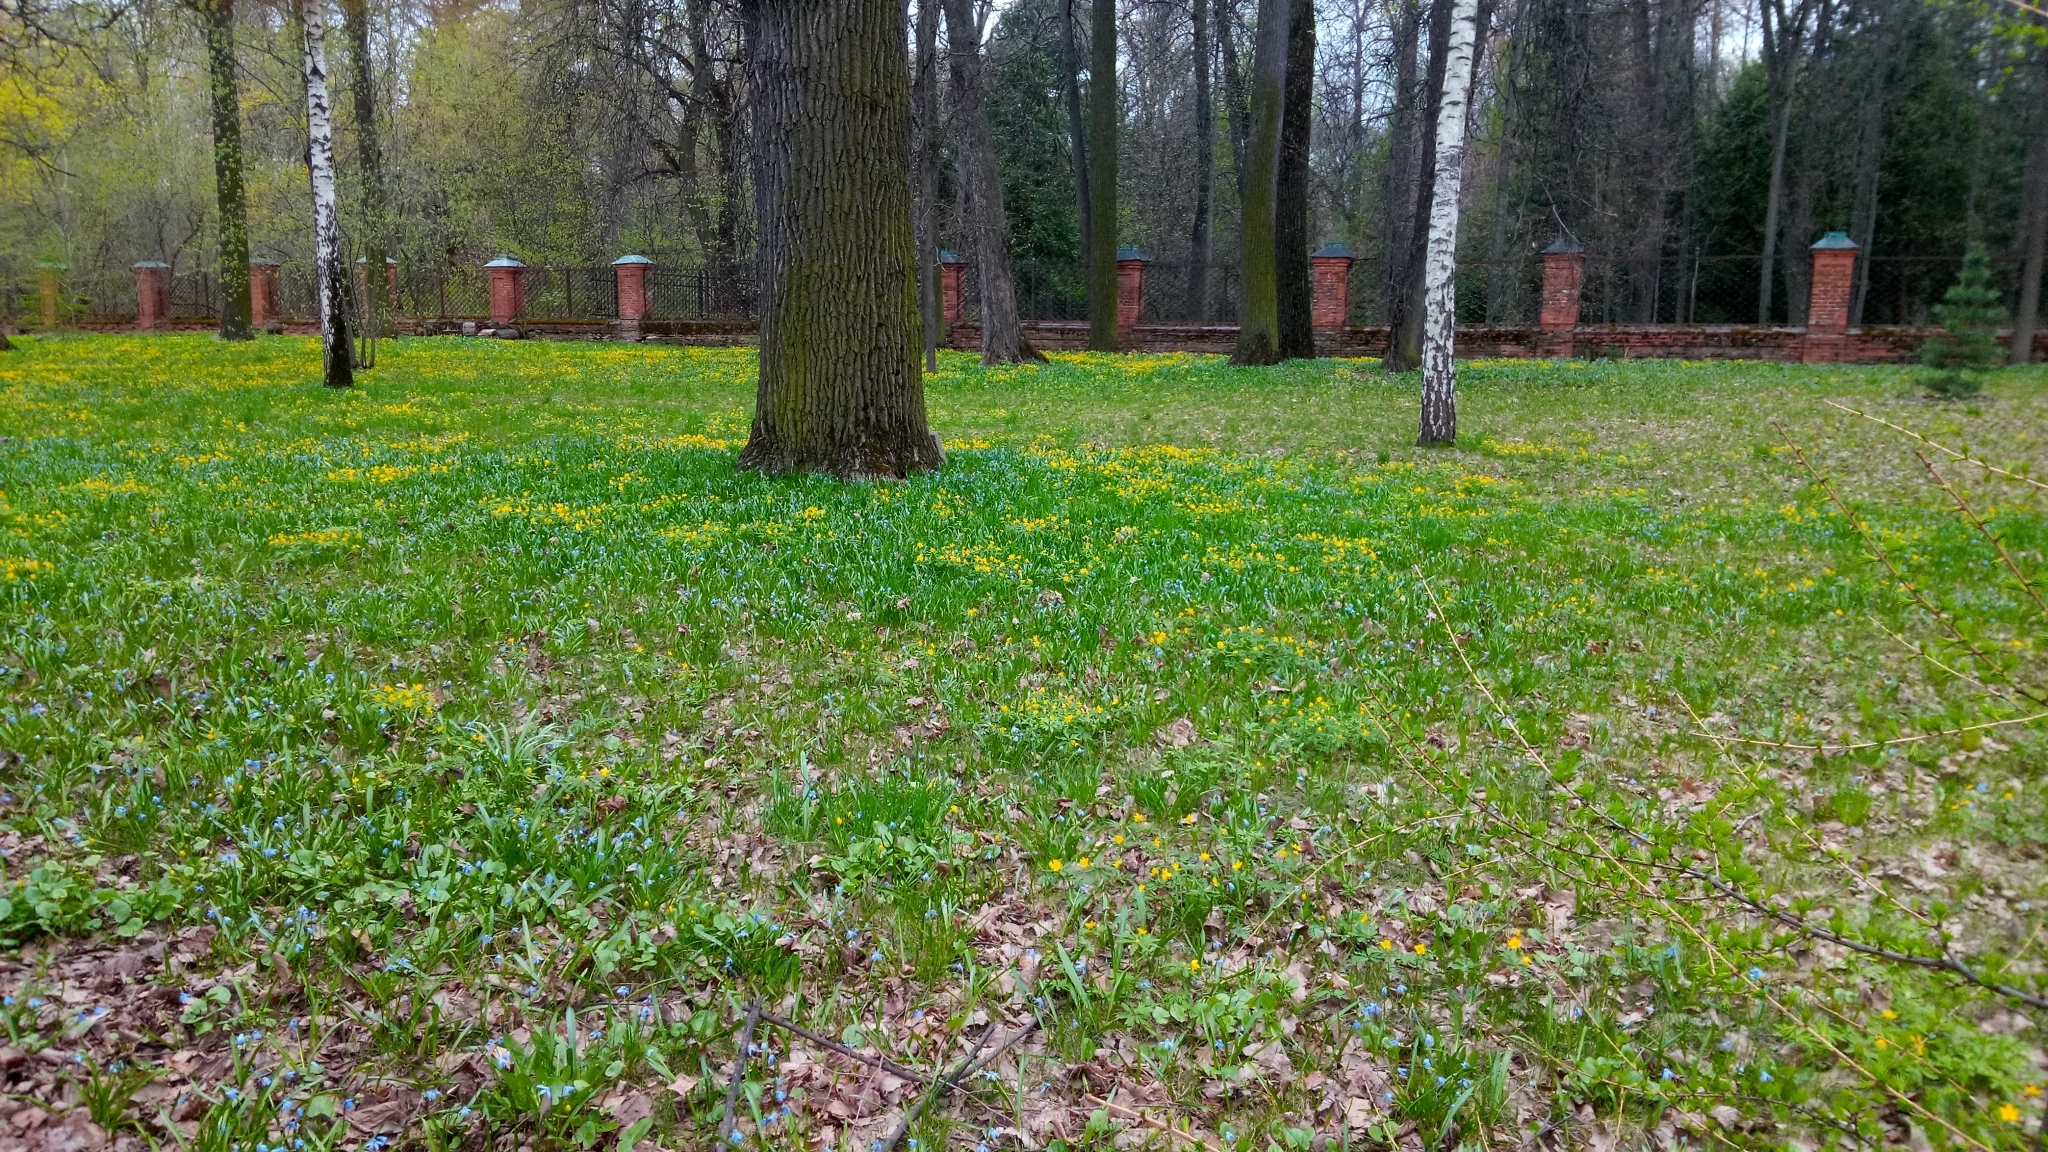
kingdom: Plantae
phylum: Tracheophyta
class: Magnoliopsida
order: Ranunculales
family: Ranunculaceae
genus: Anemone
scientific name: Anemone ranunculoides
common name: Yellow anemone
